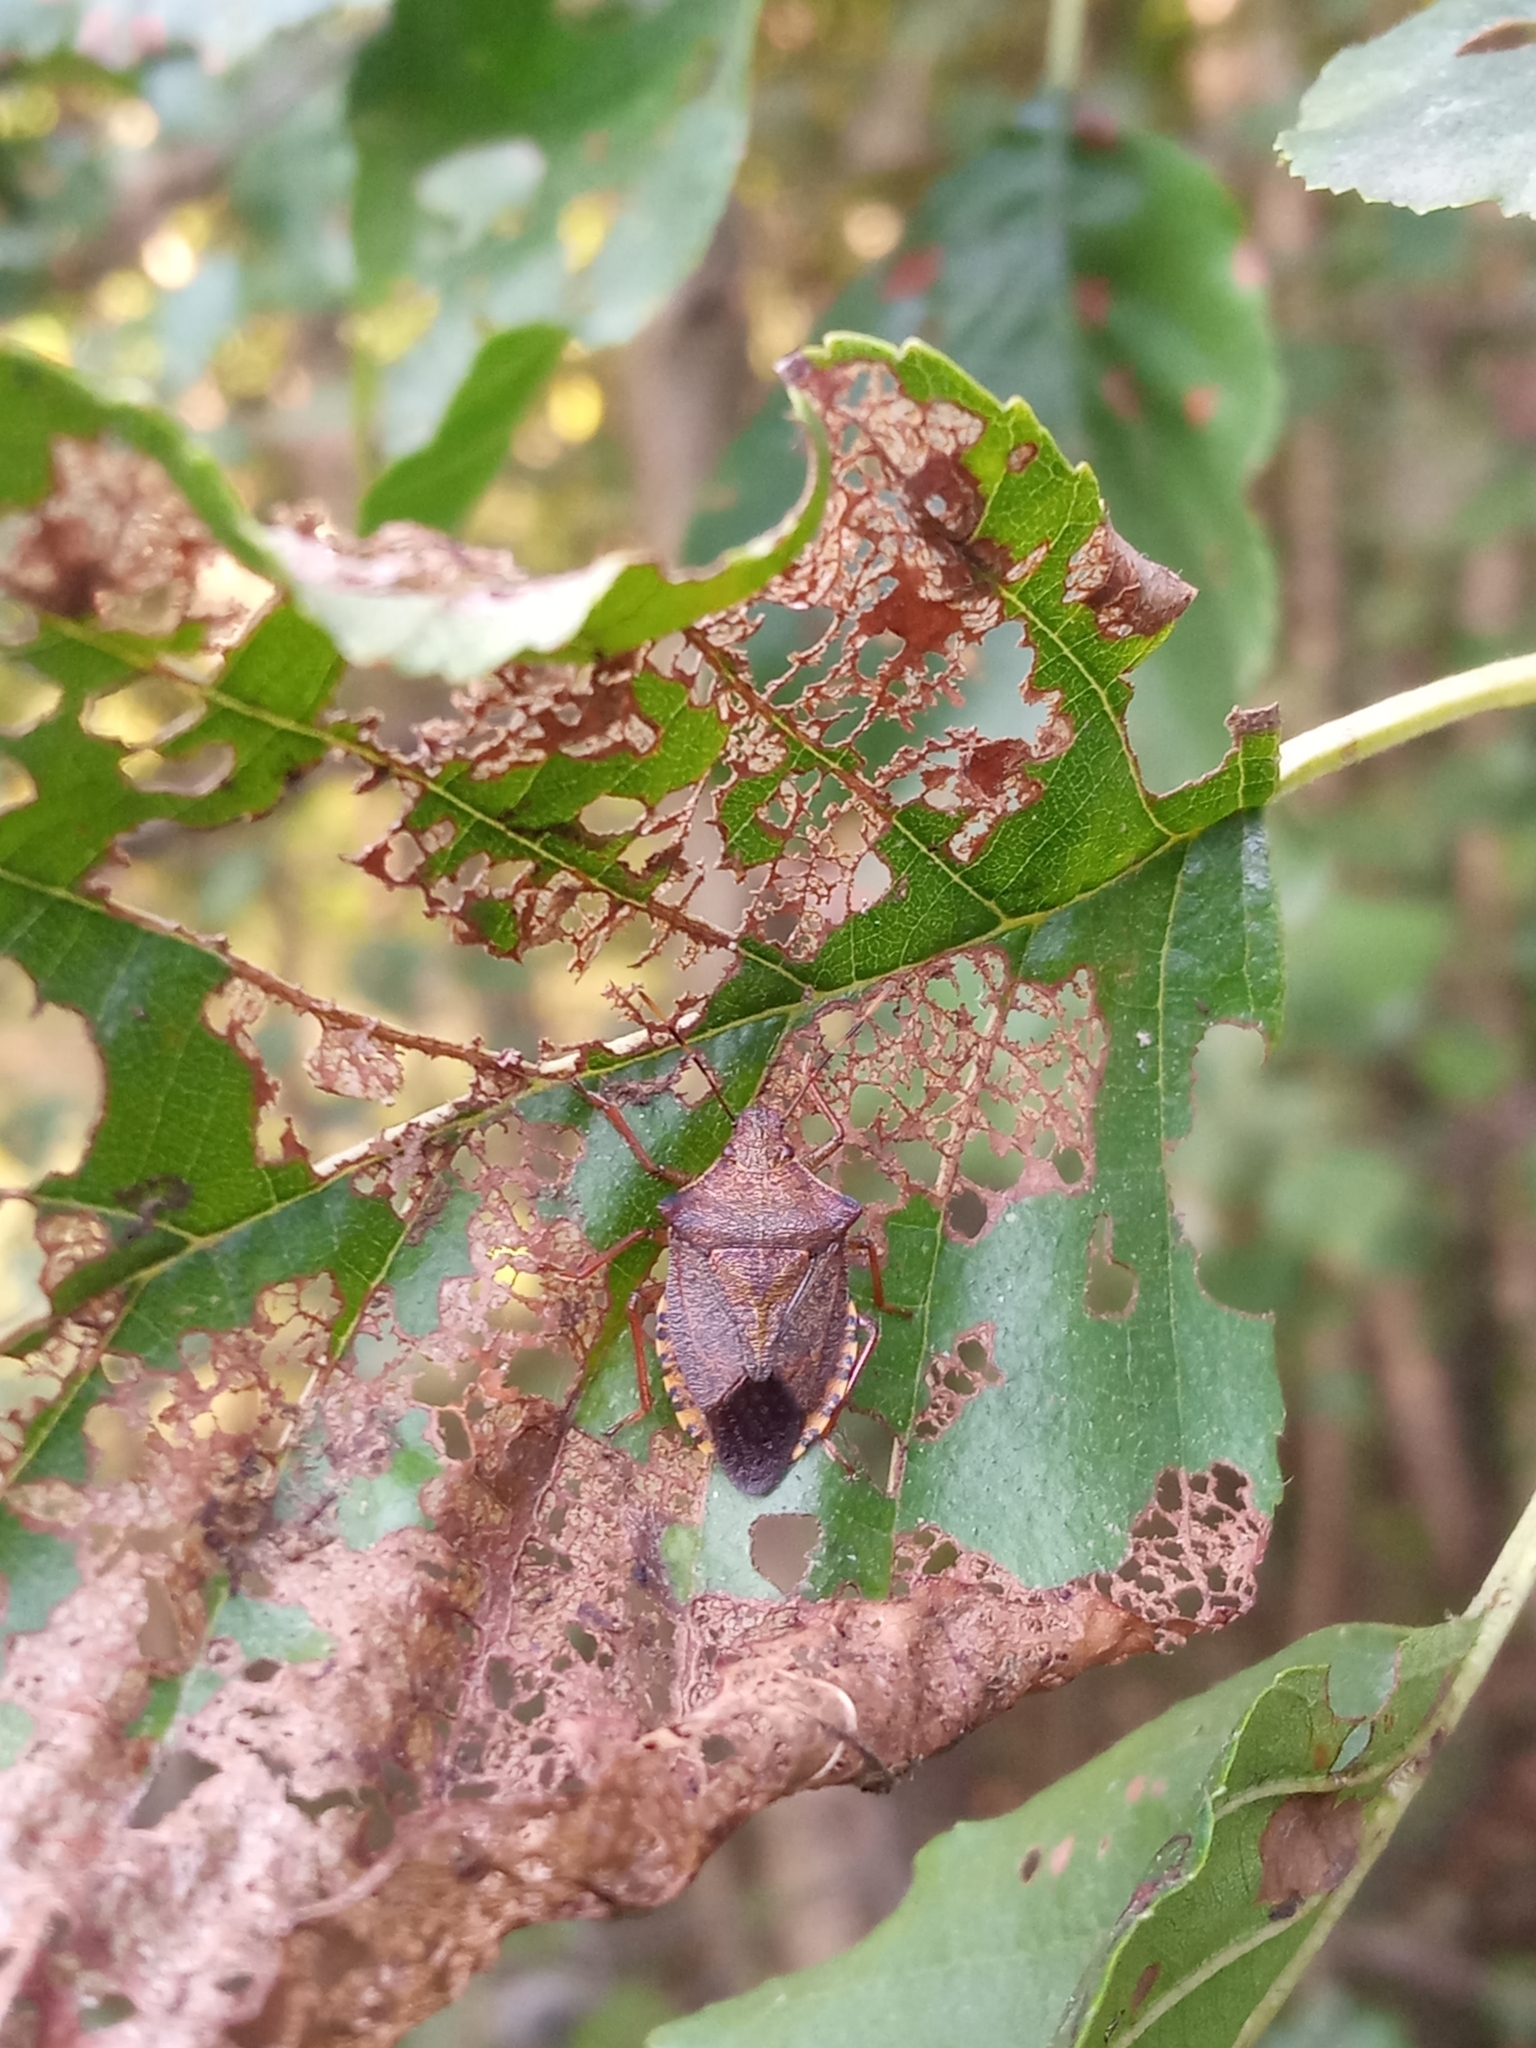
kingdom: Animalia
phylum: Arthropoda
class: Insecta
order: Hemiptera
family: Pentatomidae
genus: Arma
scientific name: Arma custos
